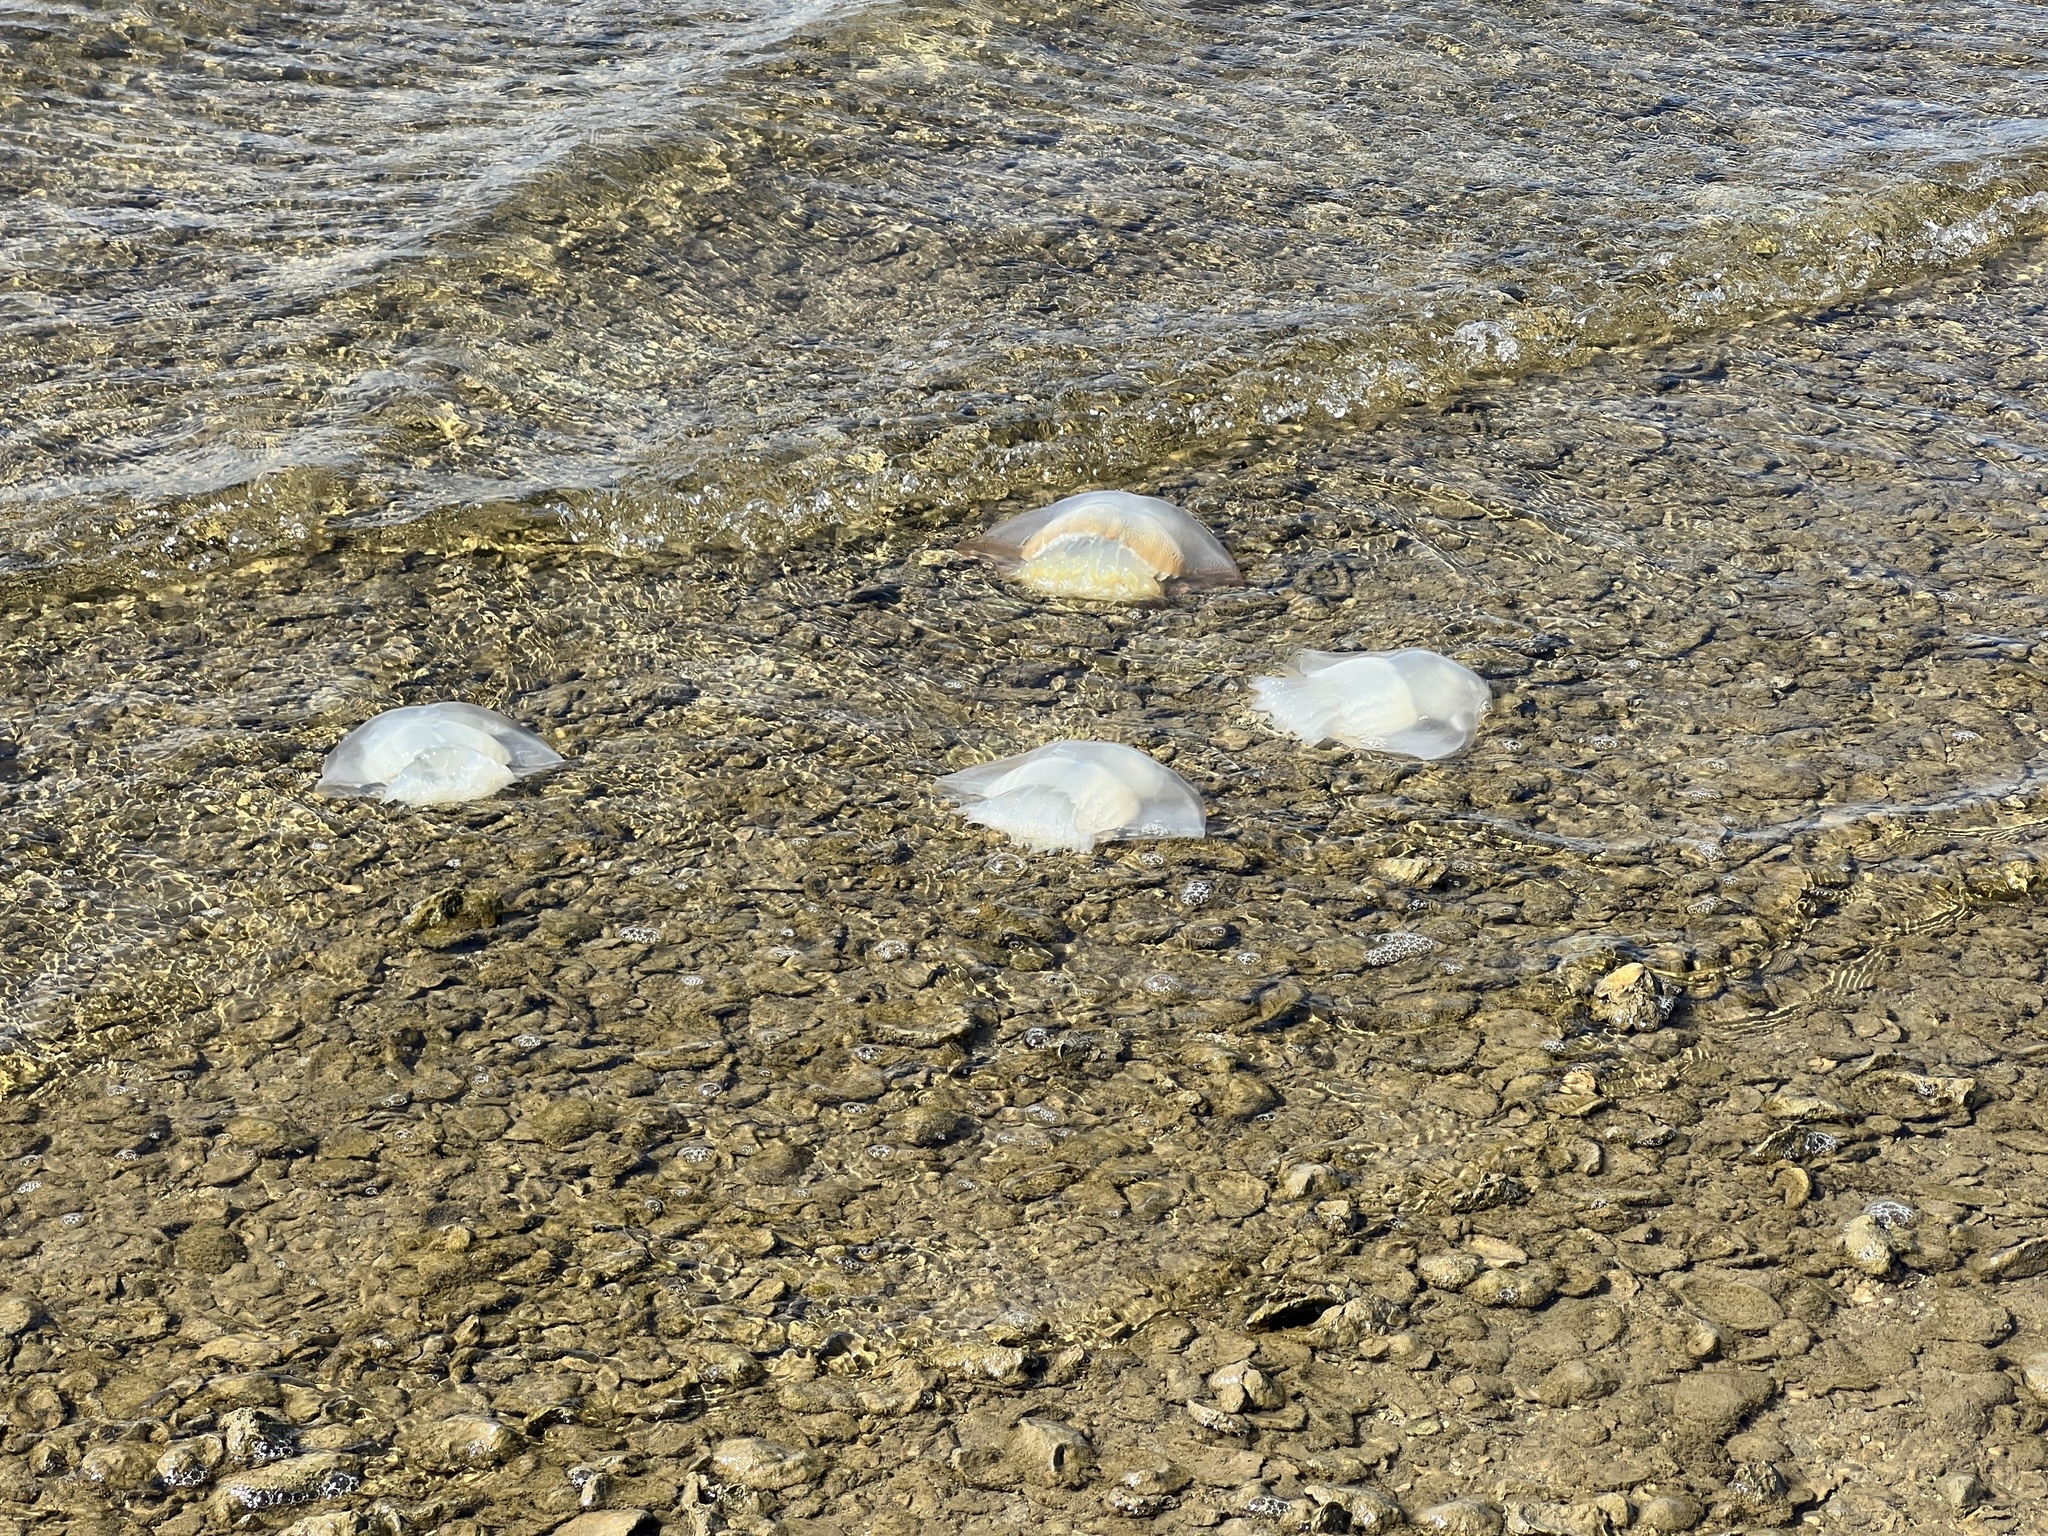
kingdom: Animalia
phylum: Cnidaria
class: Scyphozoa
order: Rhizostomeae
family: Stomolophidae
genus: Stomolophus
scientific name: Stomolophus meleagris
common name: Cabbagehead
